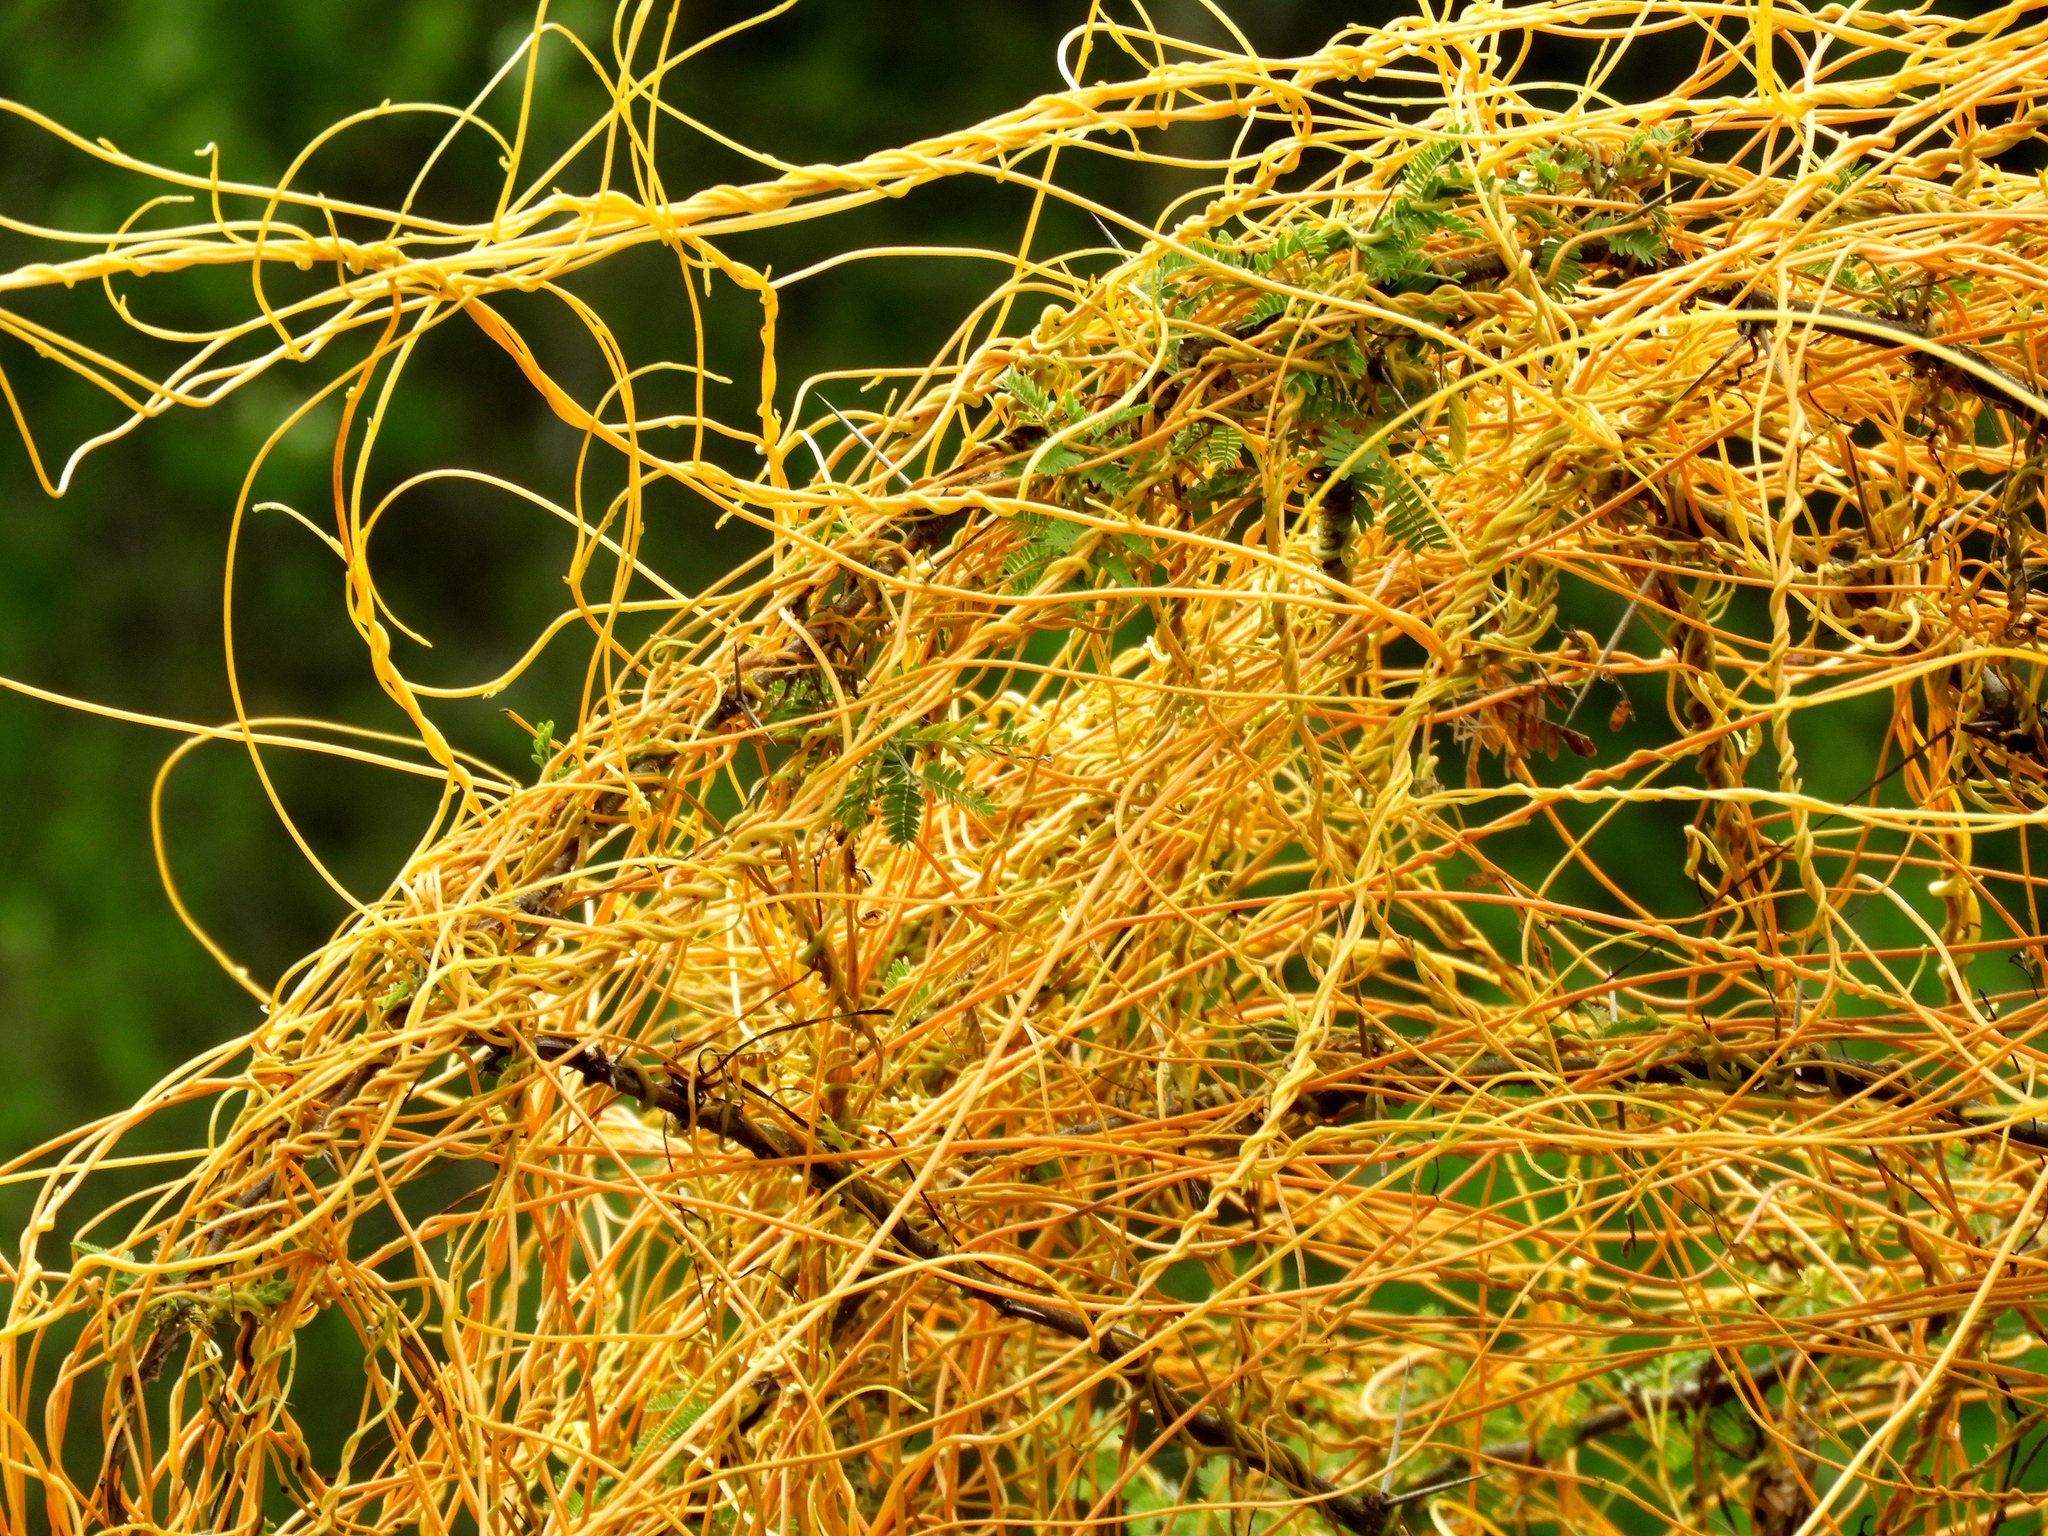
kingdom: Plantae
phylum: Tracheophyta
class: Magnoliopsida
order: Solanales
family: Convolvulaceae
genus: Cuscuta
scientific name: Cuscuta
